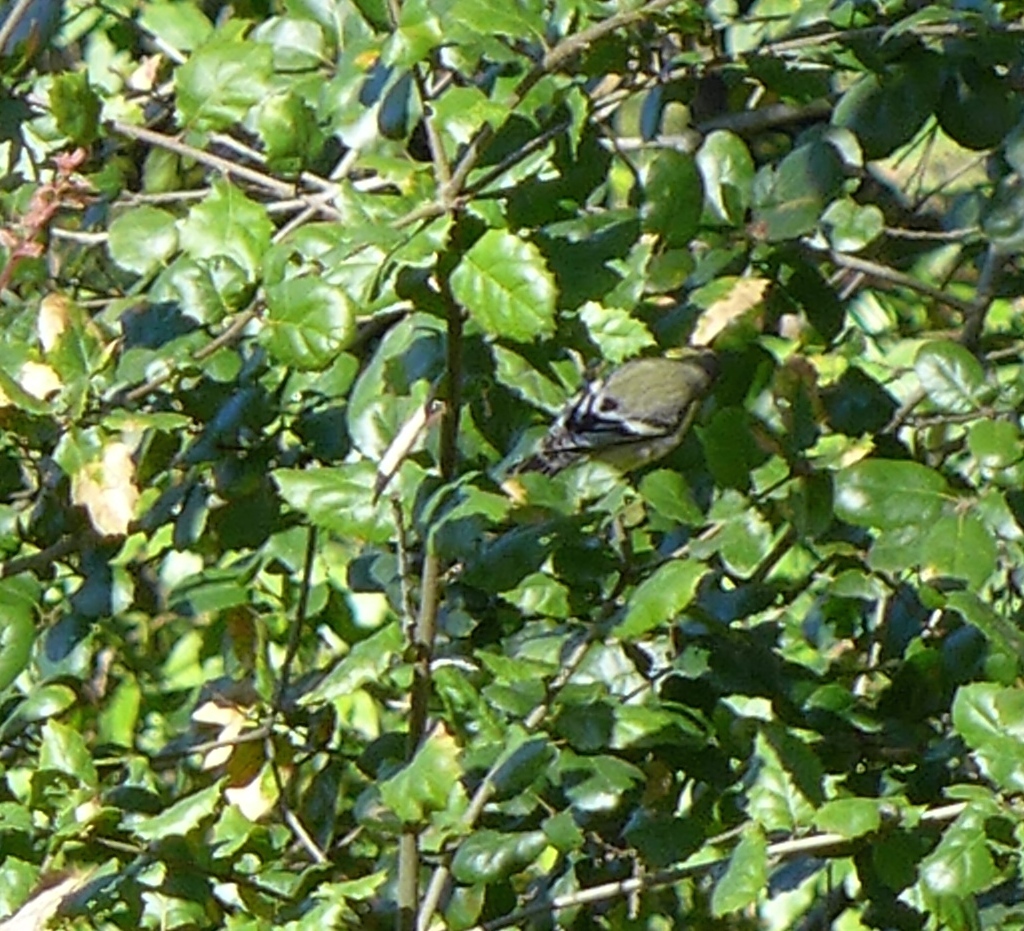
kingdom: Animalia
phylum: Chordata
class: Aves
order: Passeriformes
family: Fringillidae
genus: Spinus
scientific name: Spinus tristis
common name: American goldfinch
